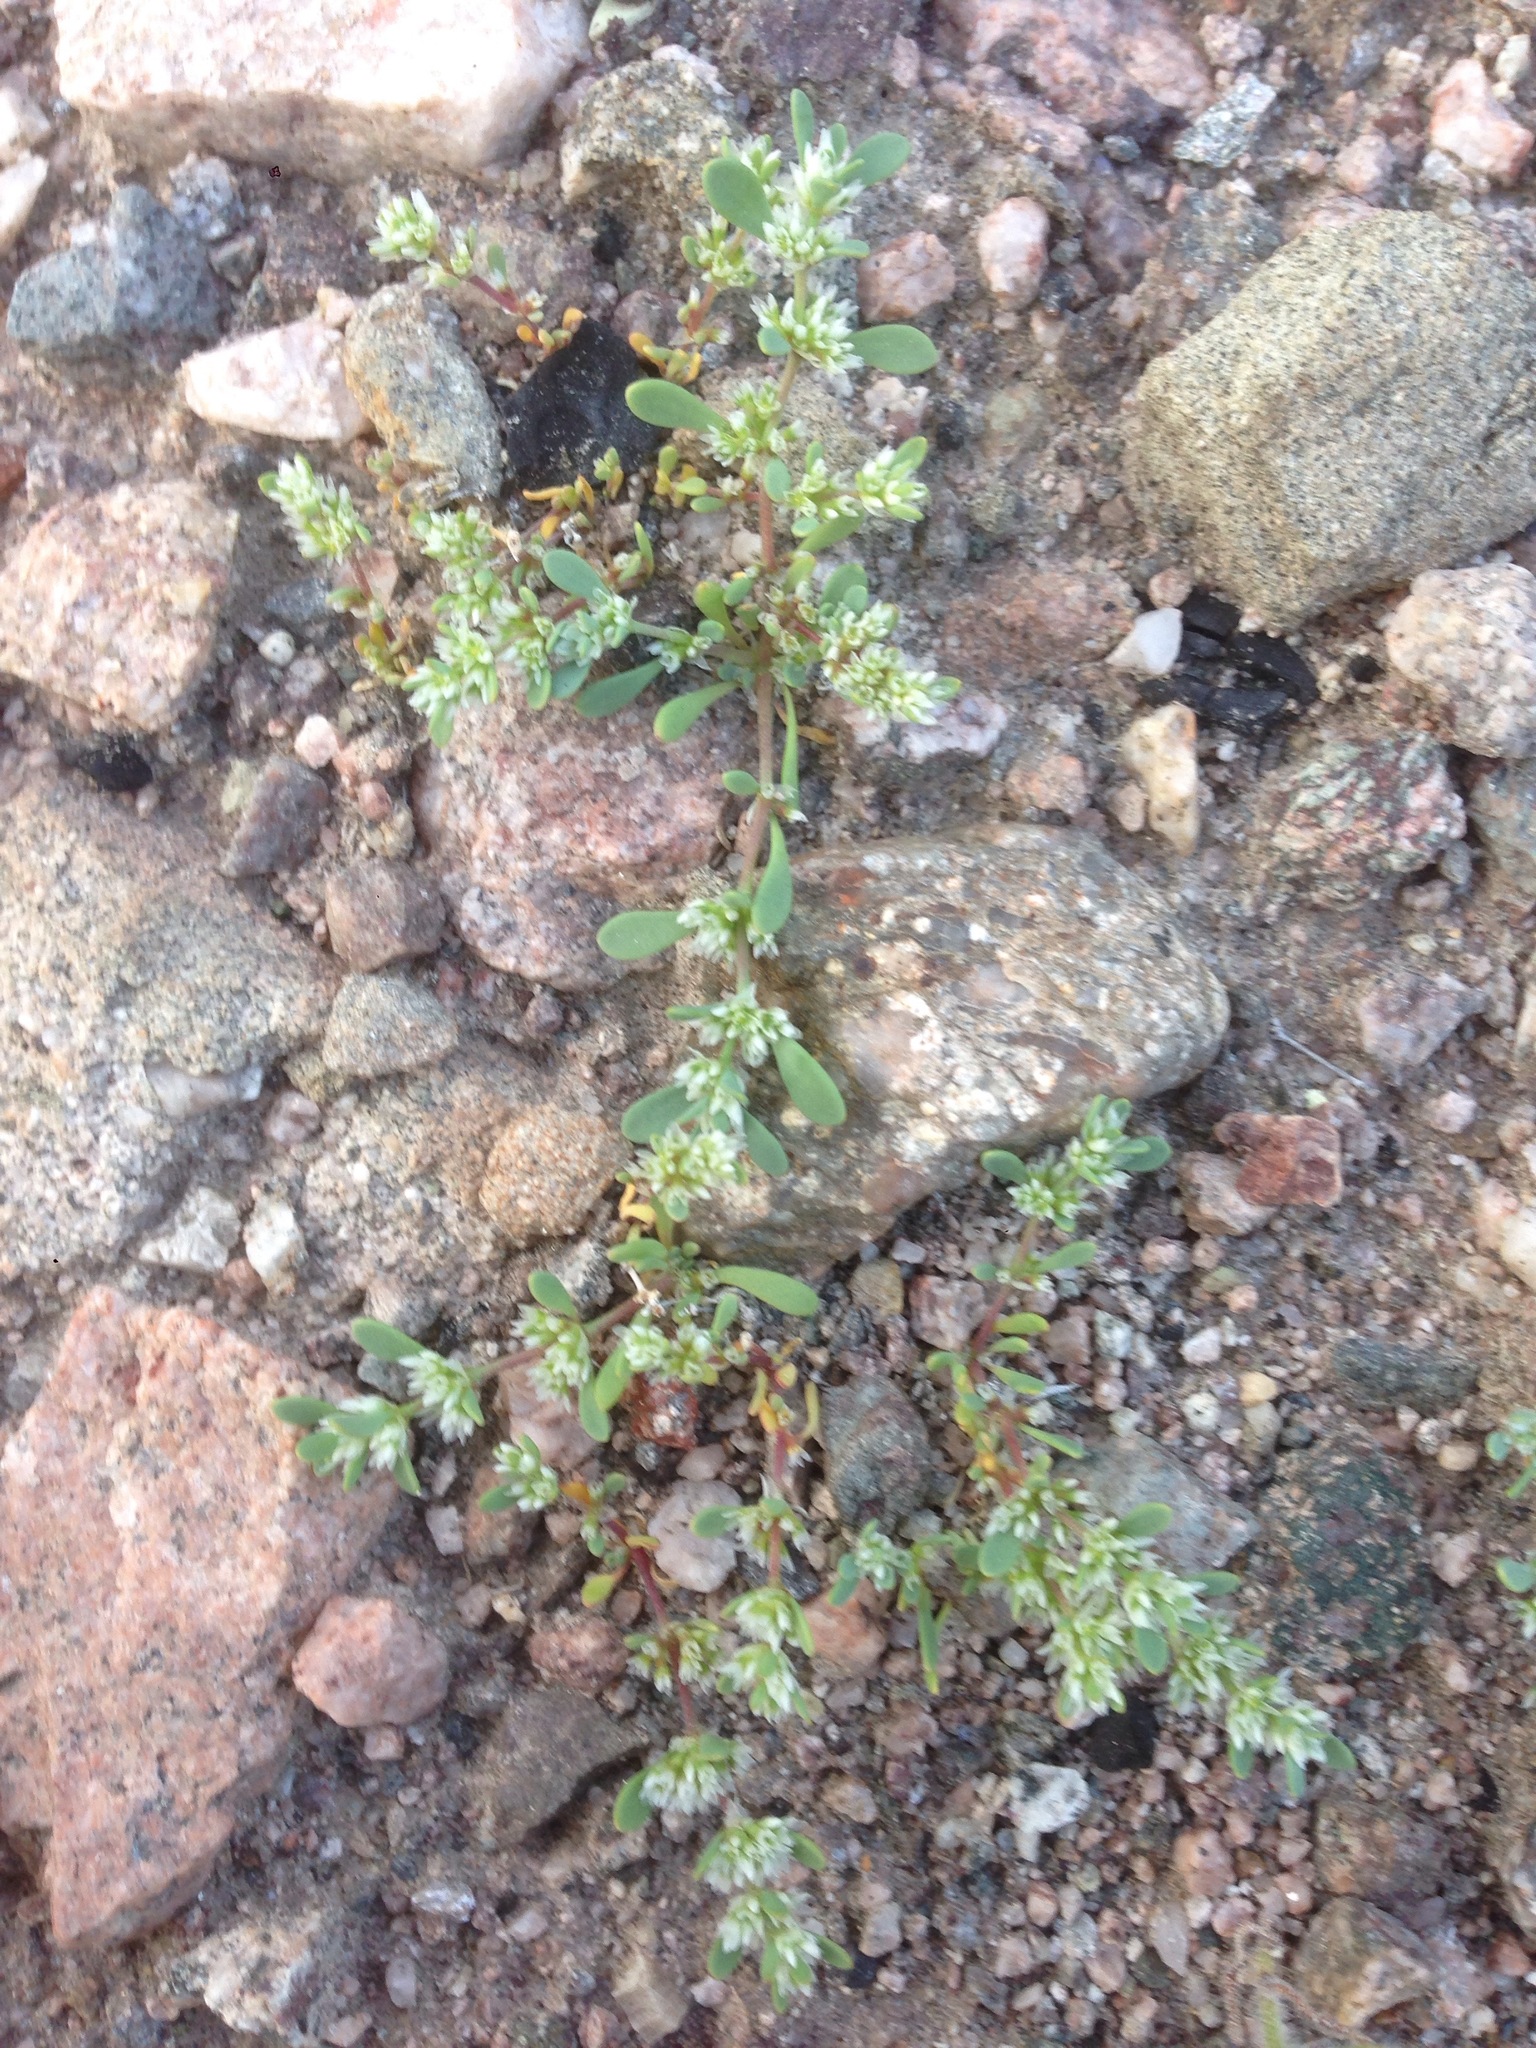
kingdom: Plantae
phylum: Tracheophyta
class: Magnoliopsida
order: Caryophyllales
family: Caryophyllaceae
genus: Achyronychia
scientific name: Achyronychia cooperi
